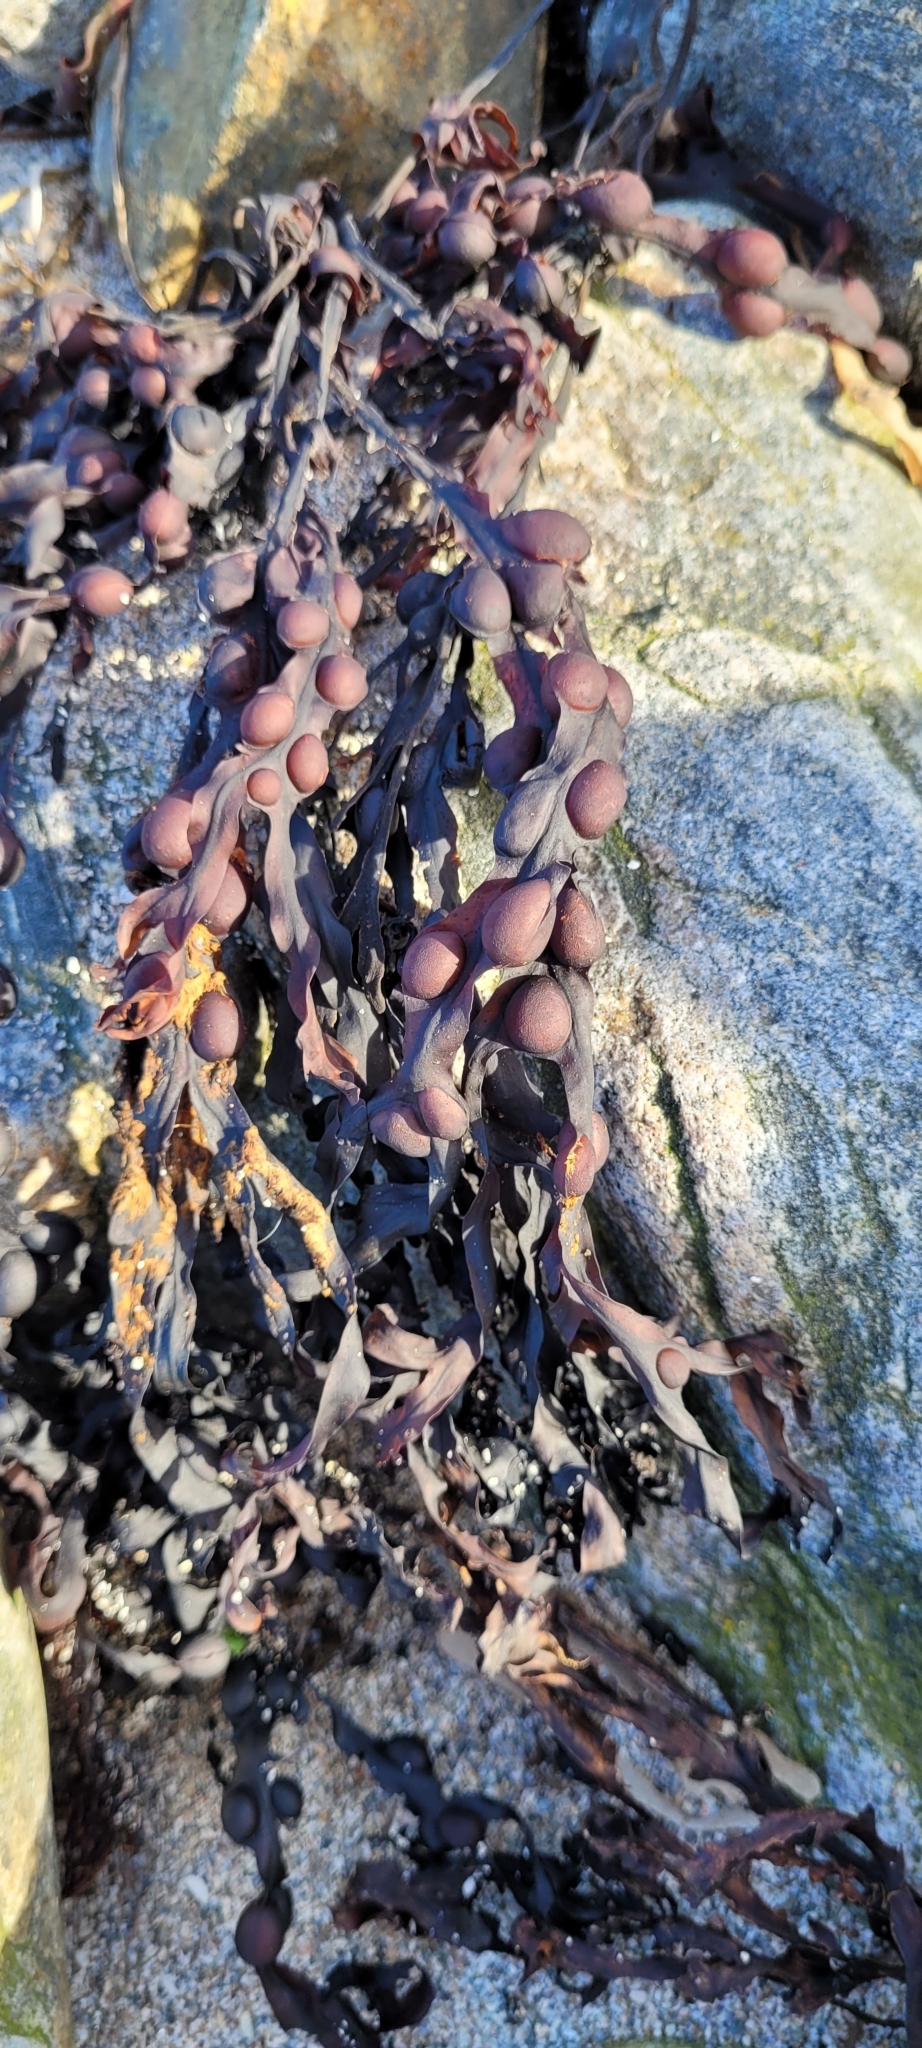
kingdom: Chromista
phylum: Ochrophyta
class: Phaeophyceae
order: Fucales
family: Fucaceae
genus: Fucus
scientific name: Fucus vesiculosus
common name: Bladder wrack
